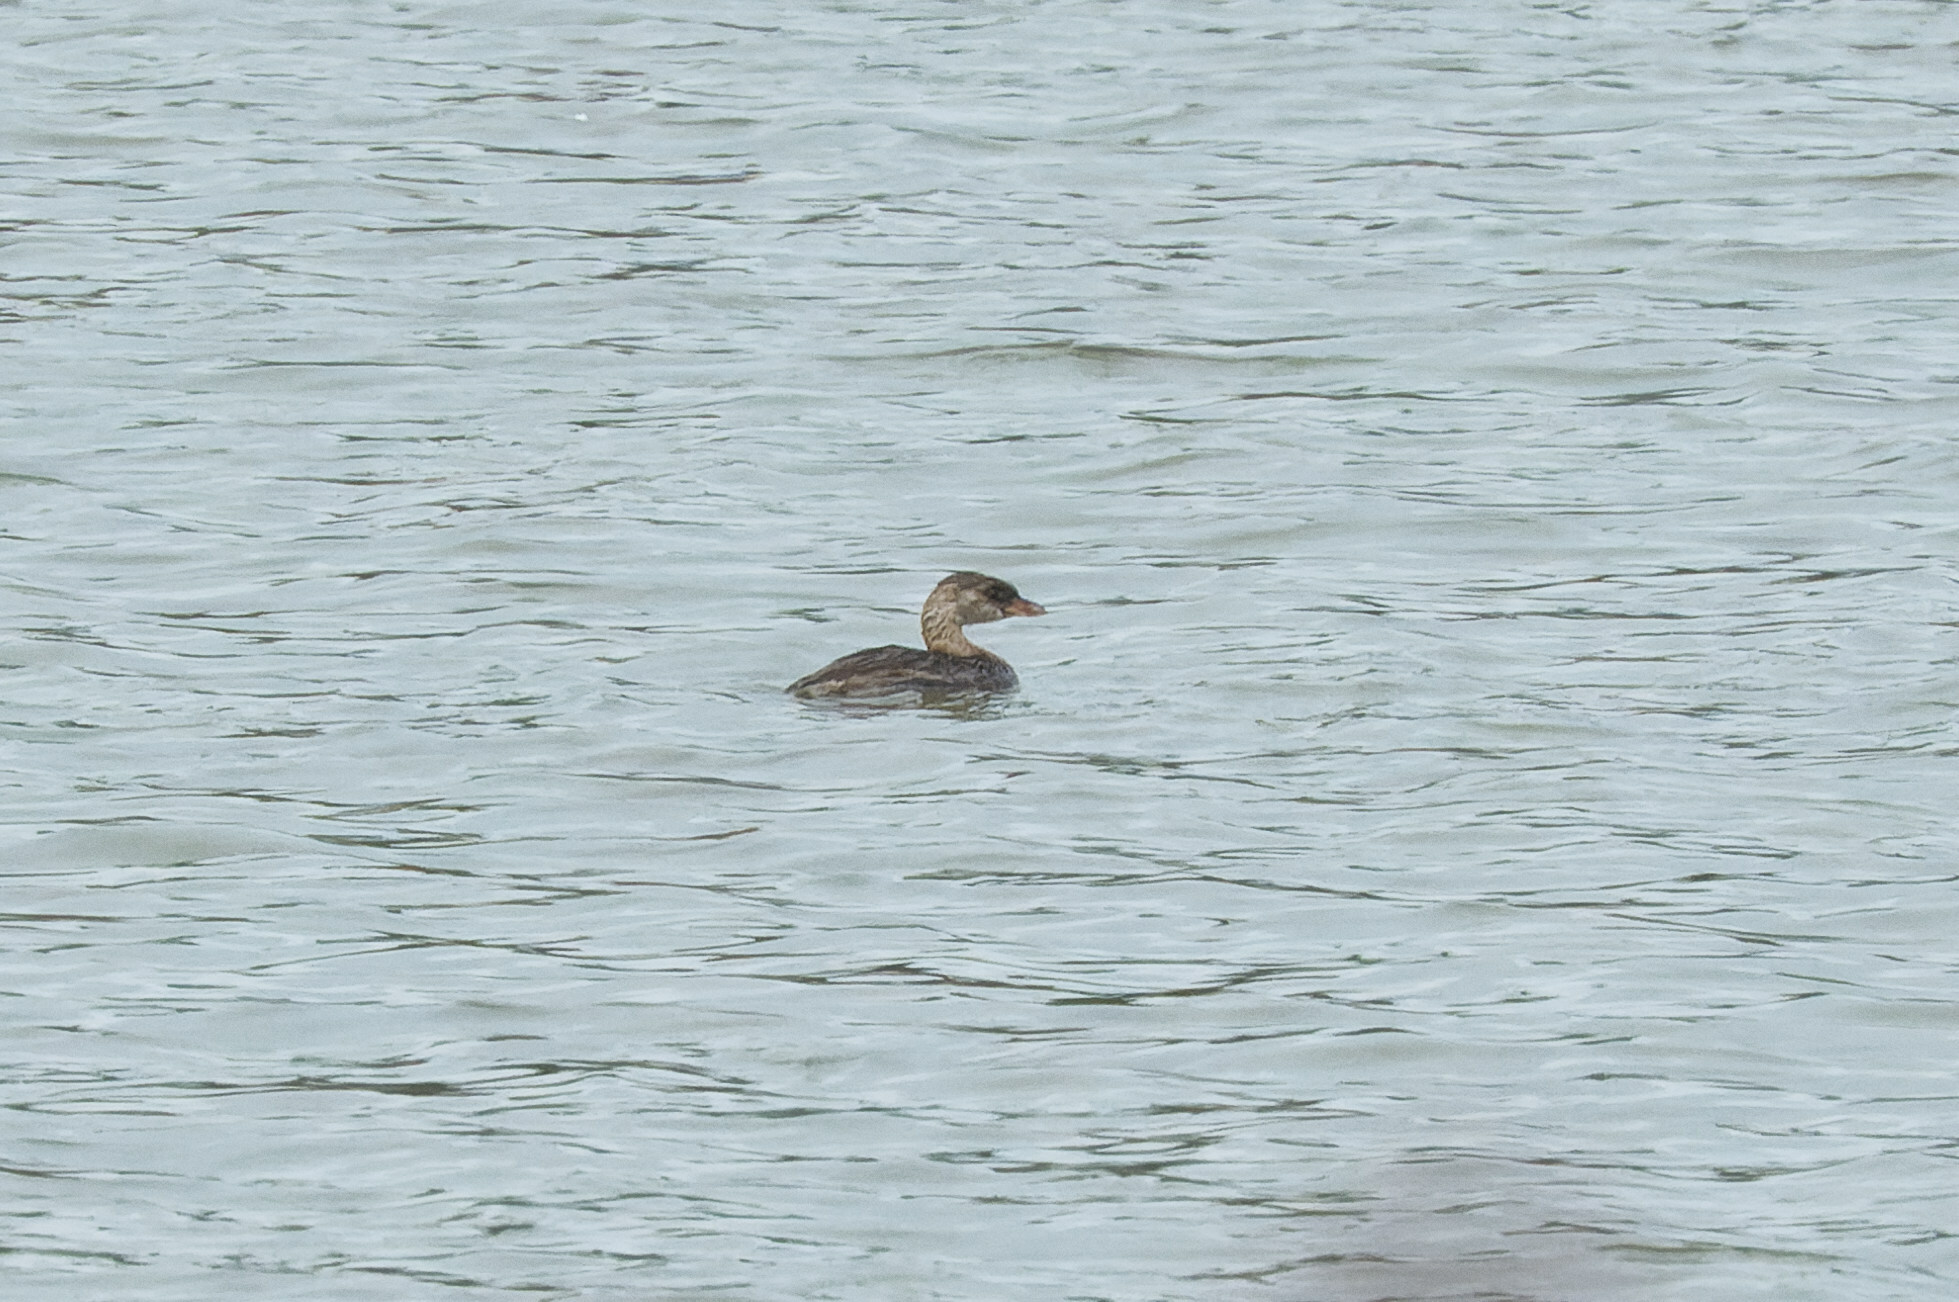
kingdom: Animalia
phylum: Chordata
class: Aves
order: Podicipediformes
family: Podicipedidae
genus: Podilymbus
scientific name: Podilymbus podiceps
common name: Pied-billed grebe
